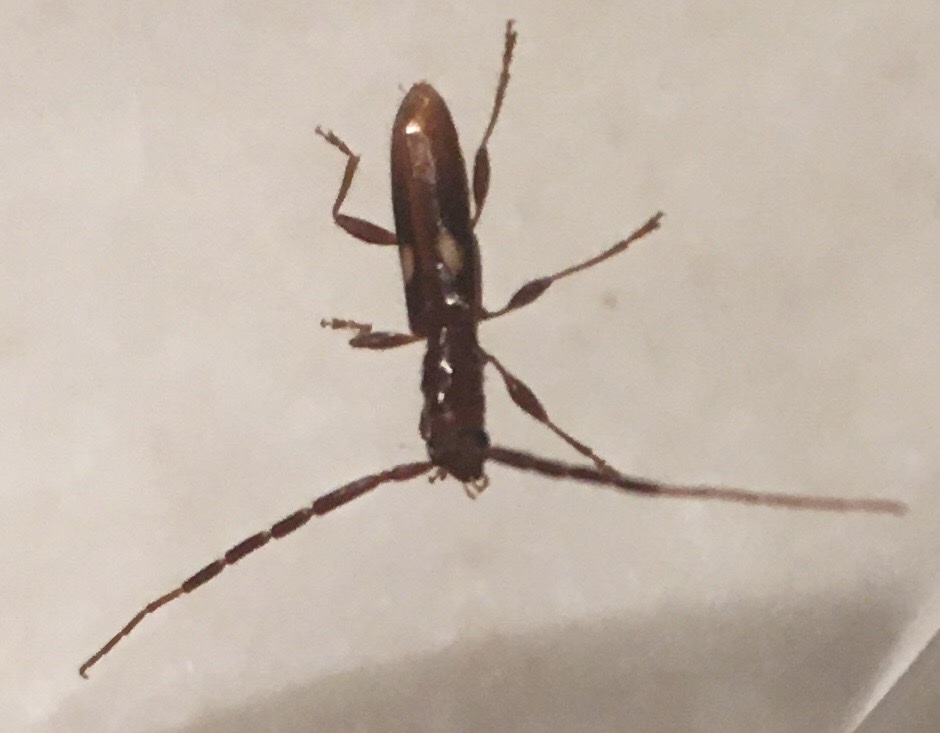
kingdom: Animalia
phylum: Arthropoda
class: Insecta
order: Coleoptera
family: Cerambycidae
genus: Heterachthes
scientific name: Heterachthes quadrimaculatus
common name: Four-spotted hickory borer
